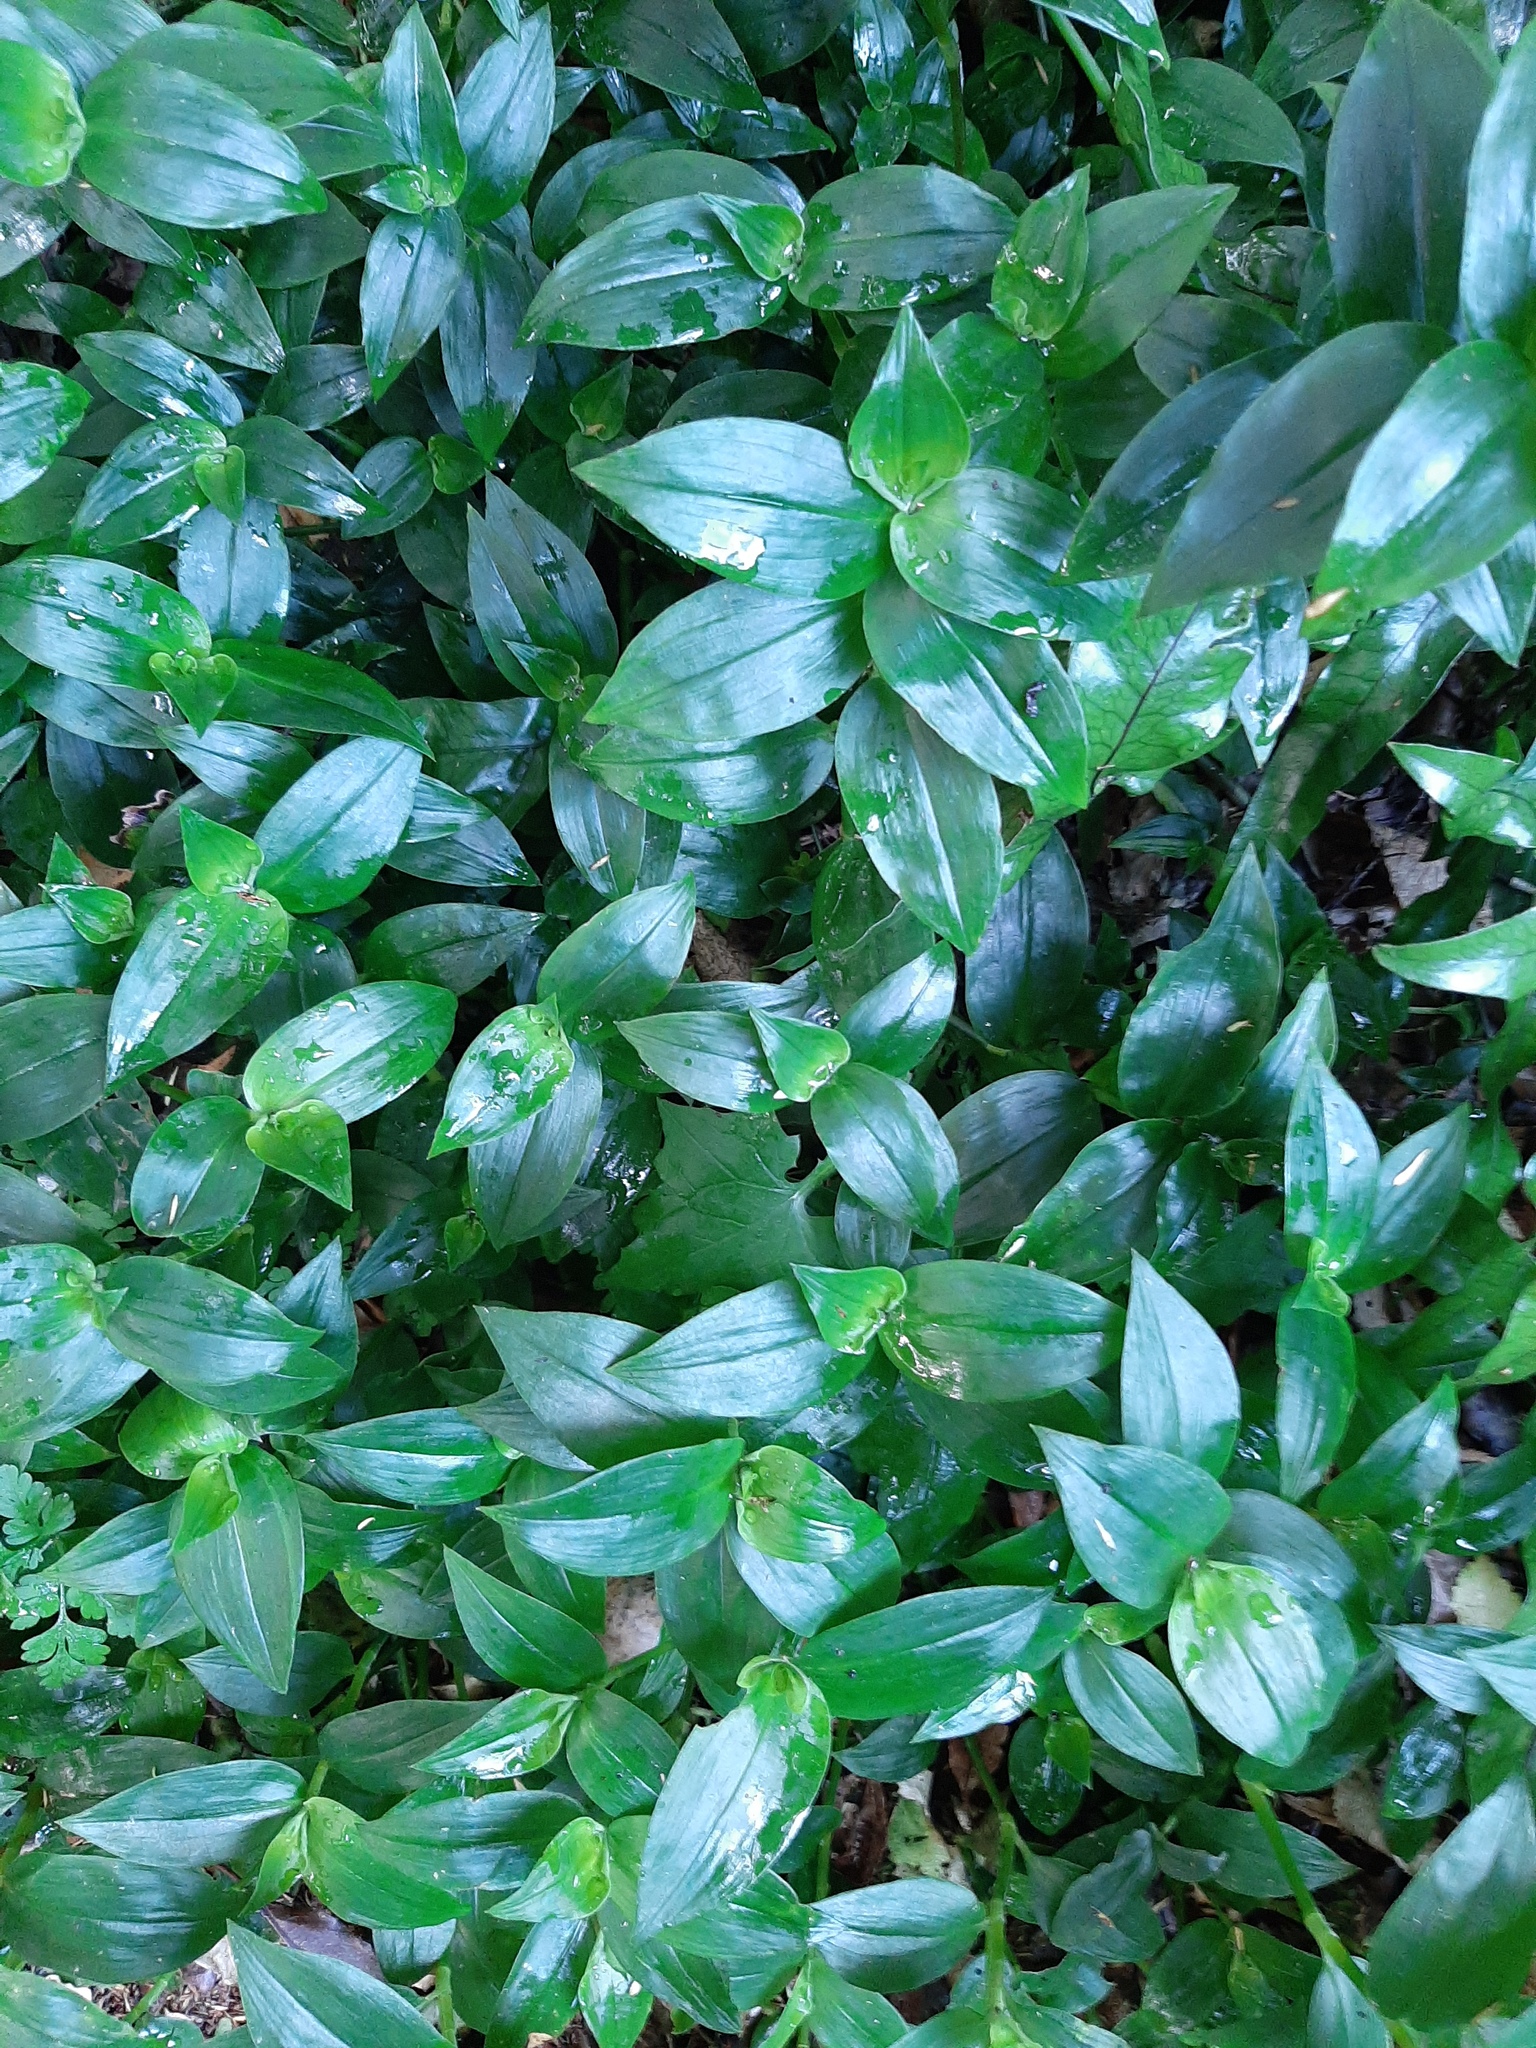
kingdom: Plantae
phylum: Tracheophyta
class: Liliopsida
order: Commelinales
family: Commelinaceae
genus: Tradescantia
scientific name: Tradescantia fluminensis
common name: Wandering-jew
